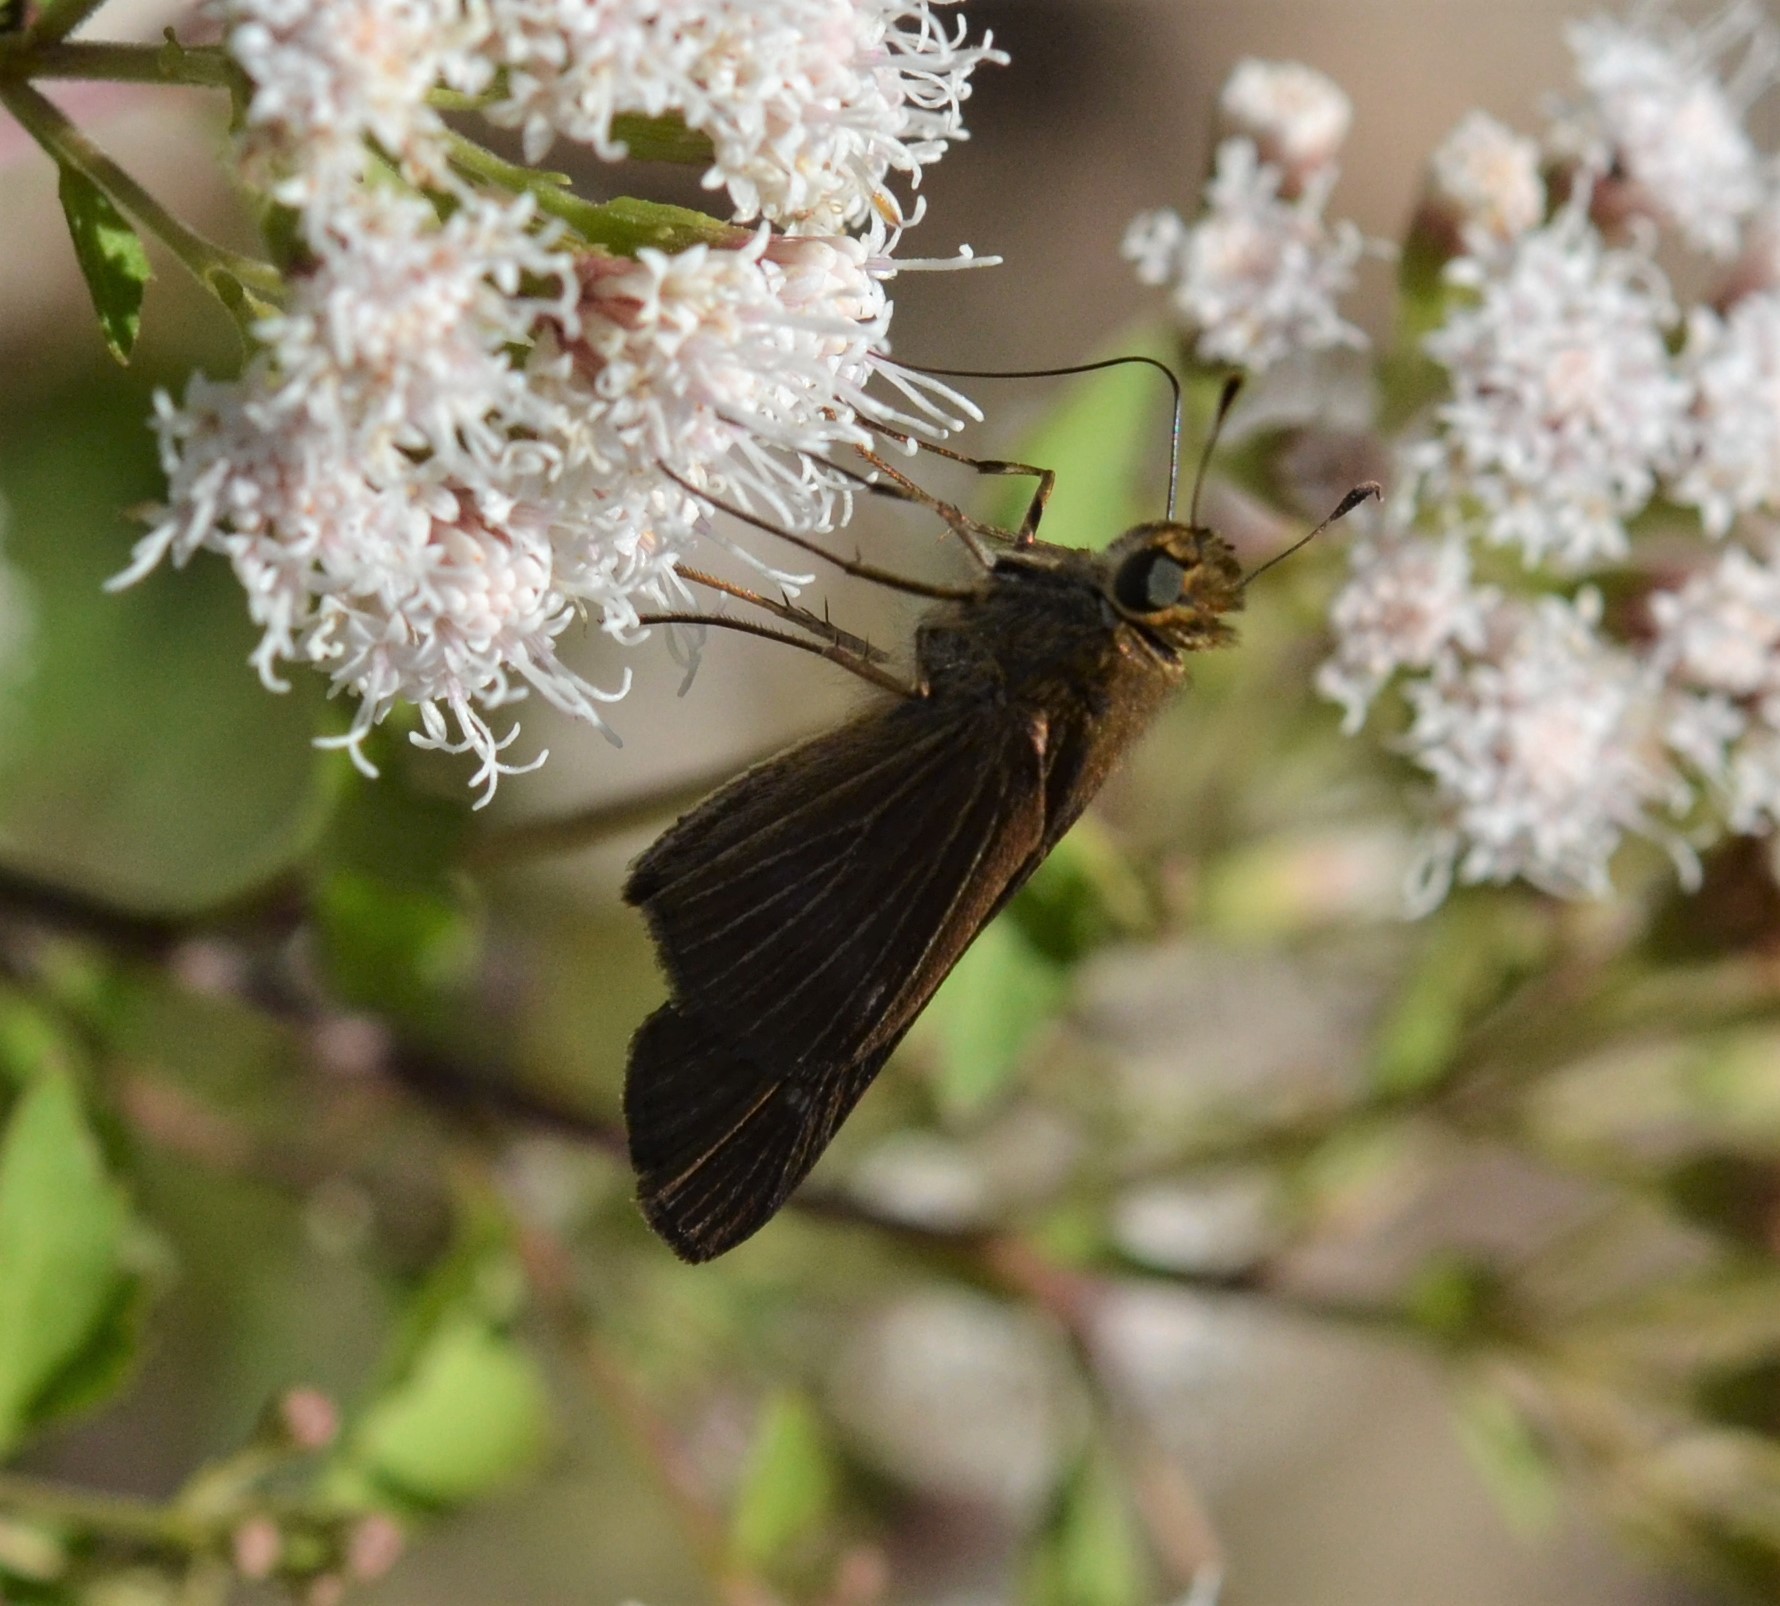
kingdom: Animalia
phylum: Arthropoda
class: Insecta
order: Lepidoptera
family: Hesperiidae
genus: Panoquina
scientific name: Panoquina ocola
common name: Ocola skipper
